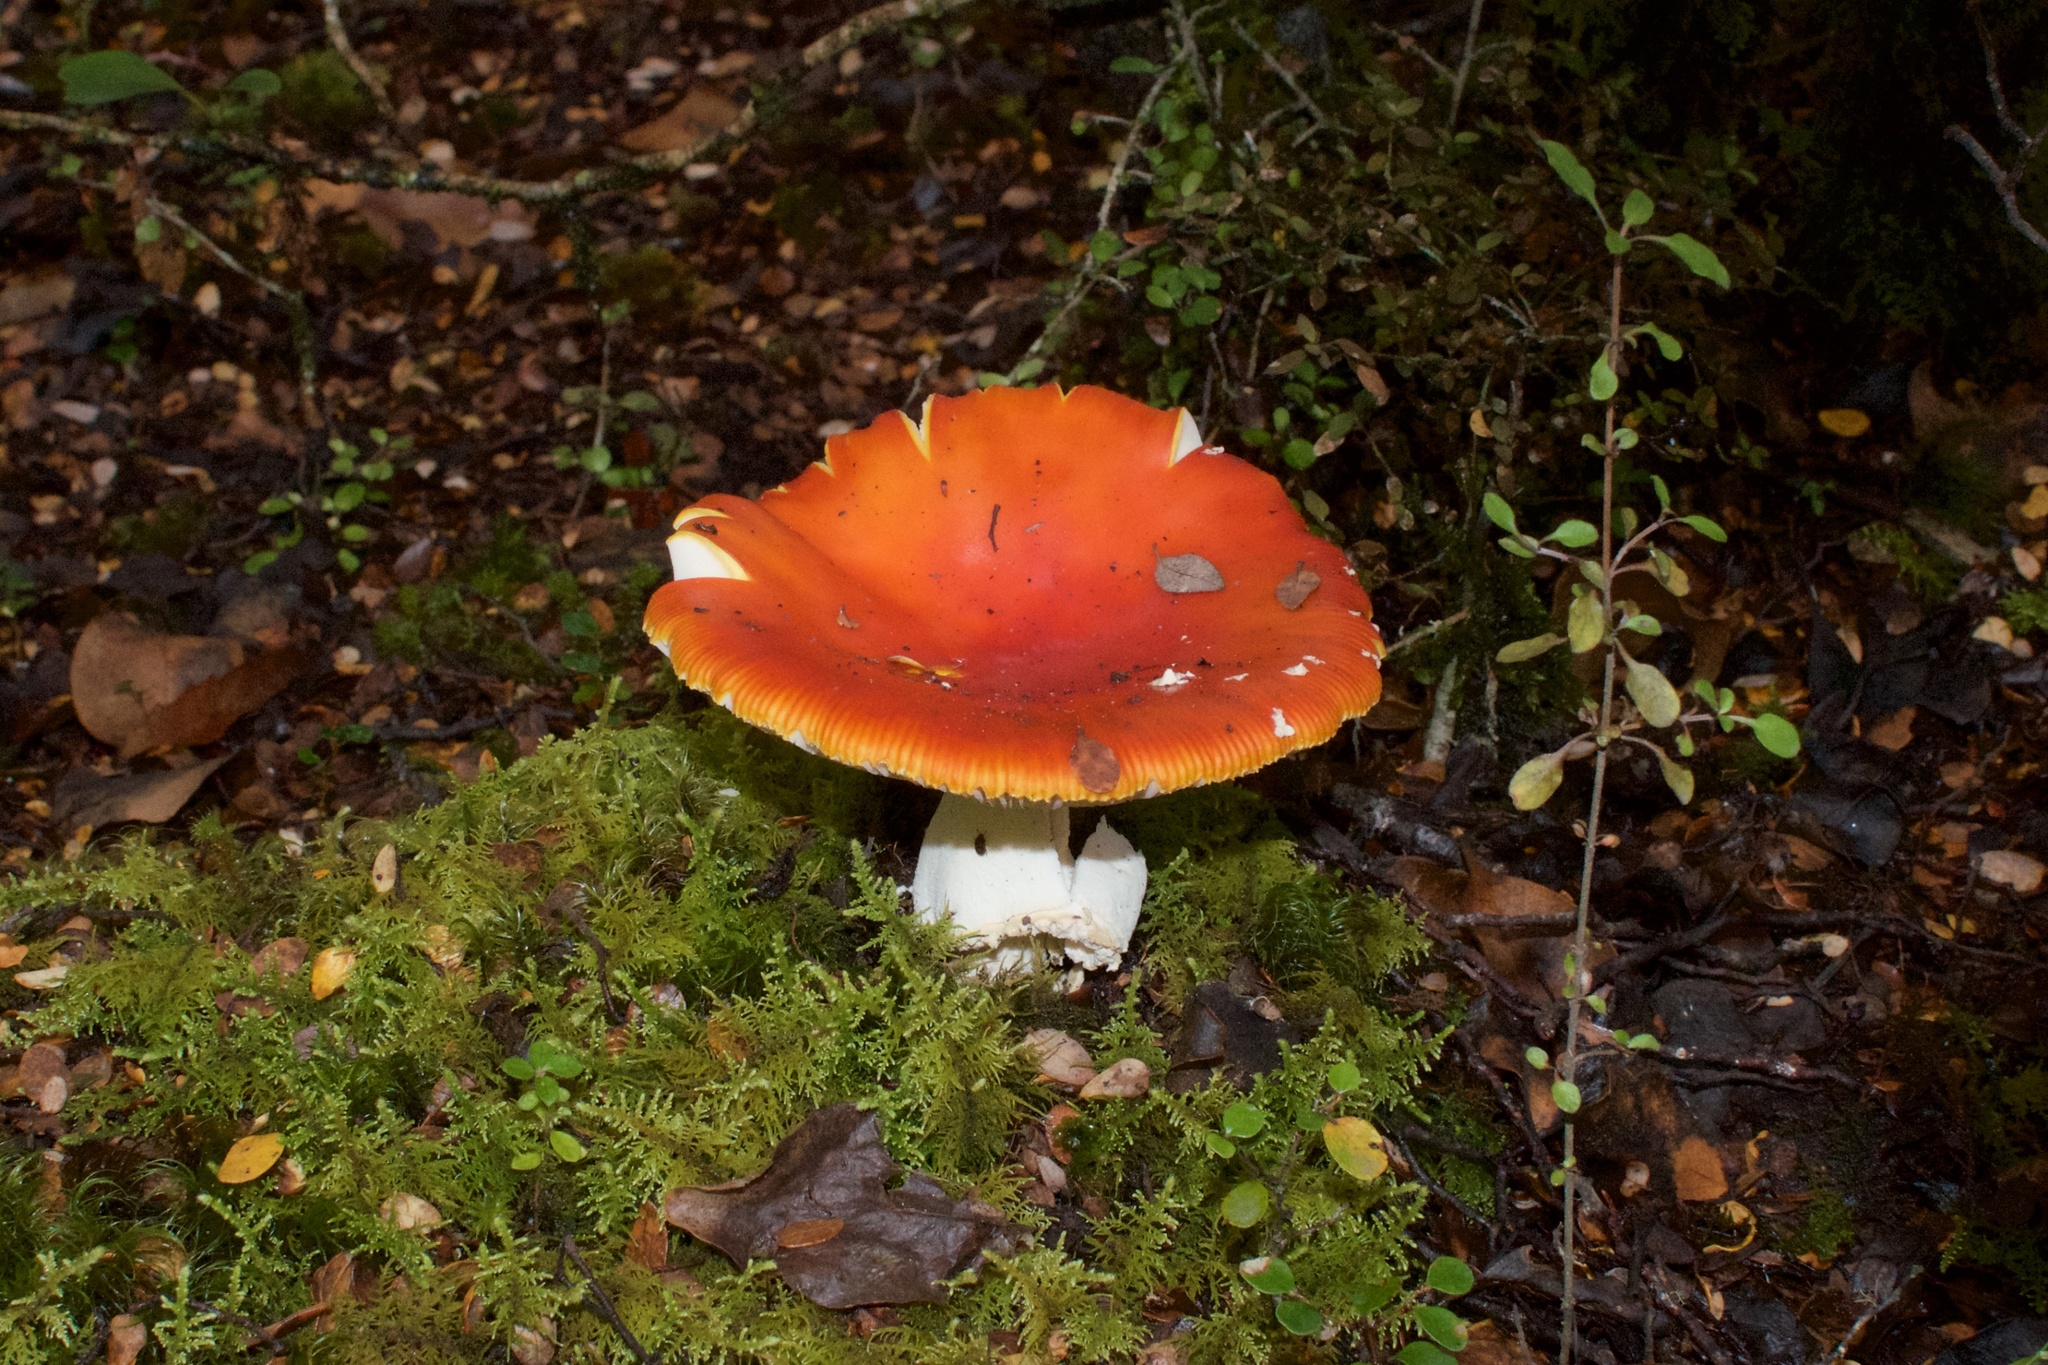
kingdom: Fungi
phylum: Basidiomycota
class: Agaricomycetes
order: Agaricales
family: Amanitaceae
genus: Amanita
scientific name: Amanita muscaria
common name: Fly agaric
